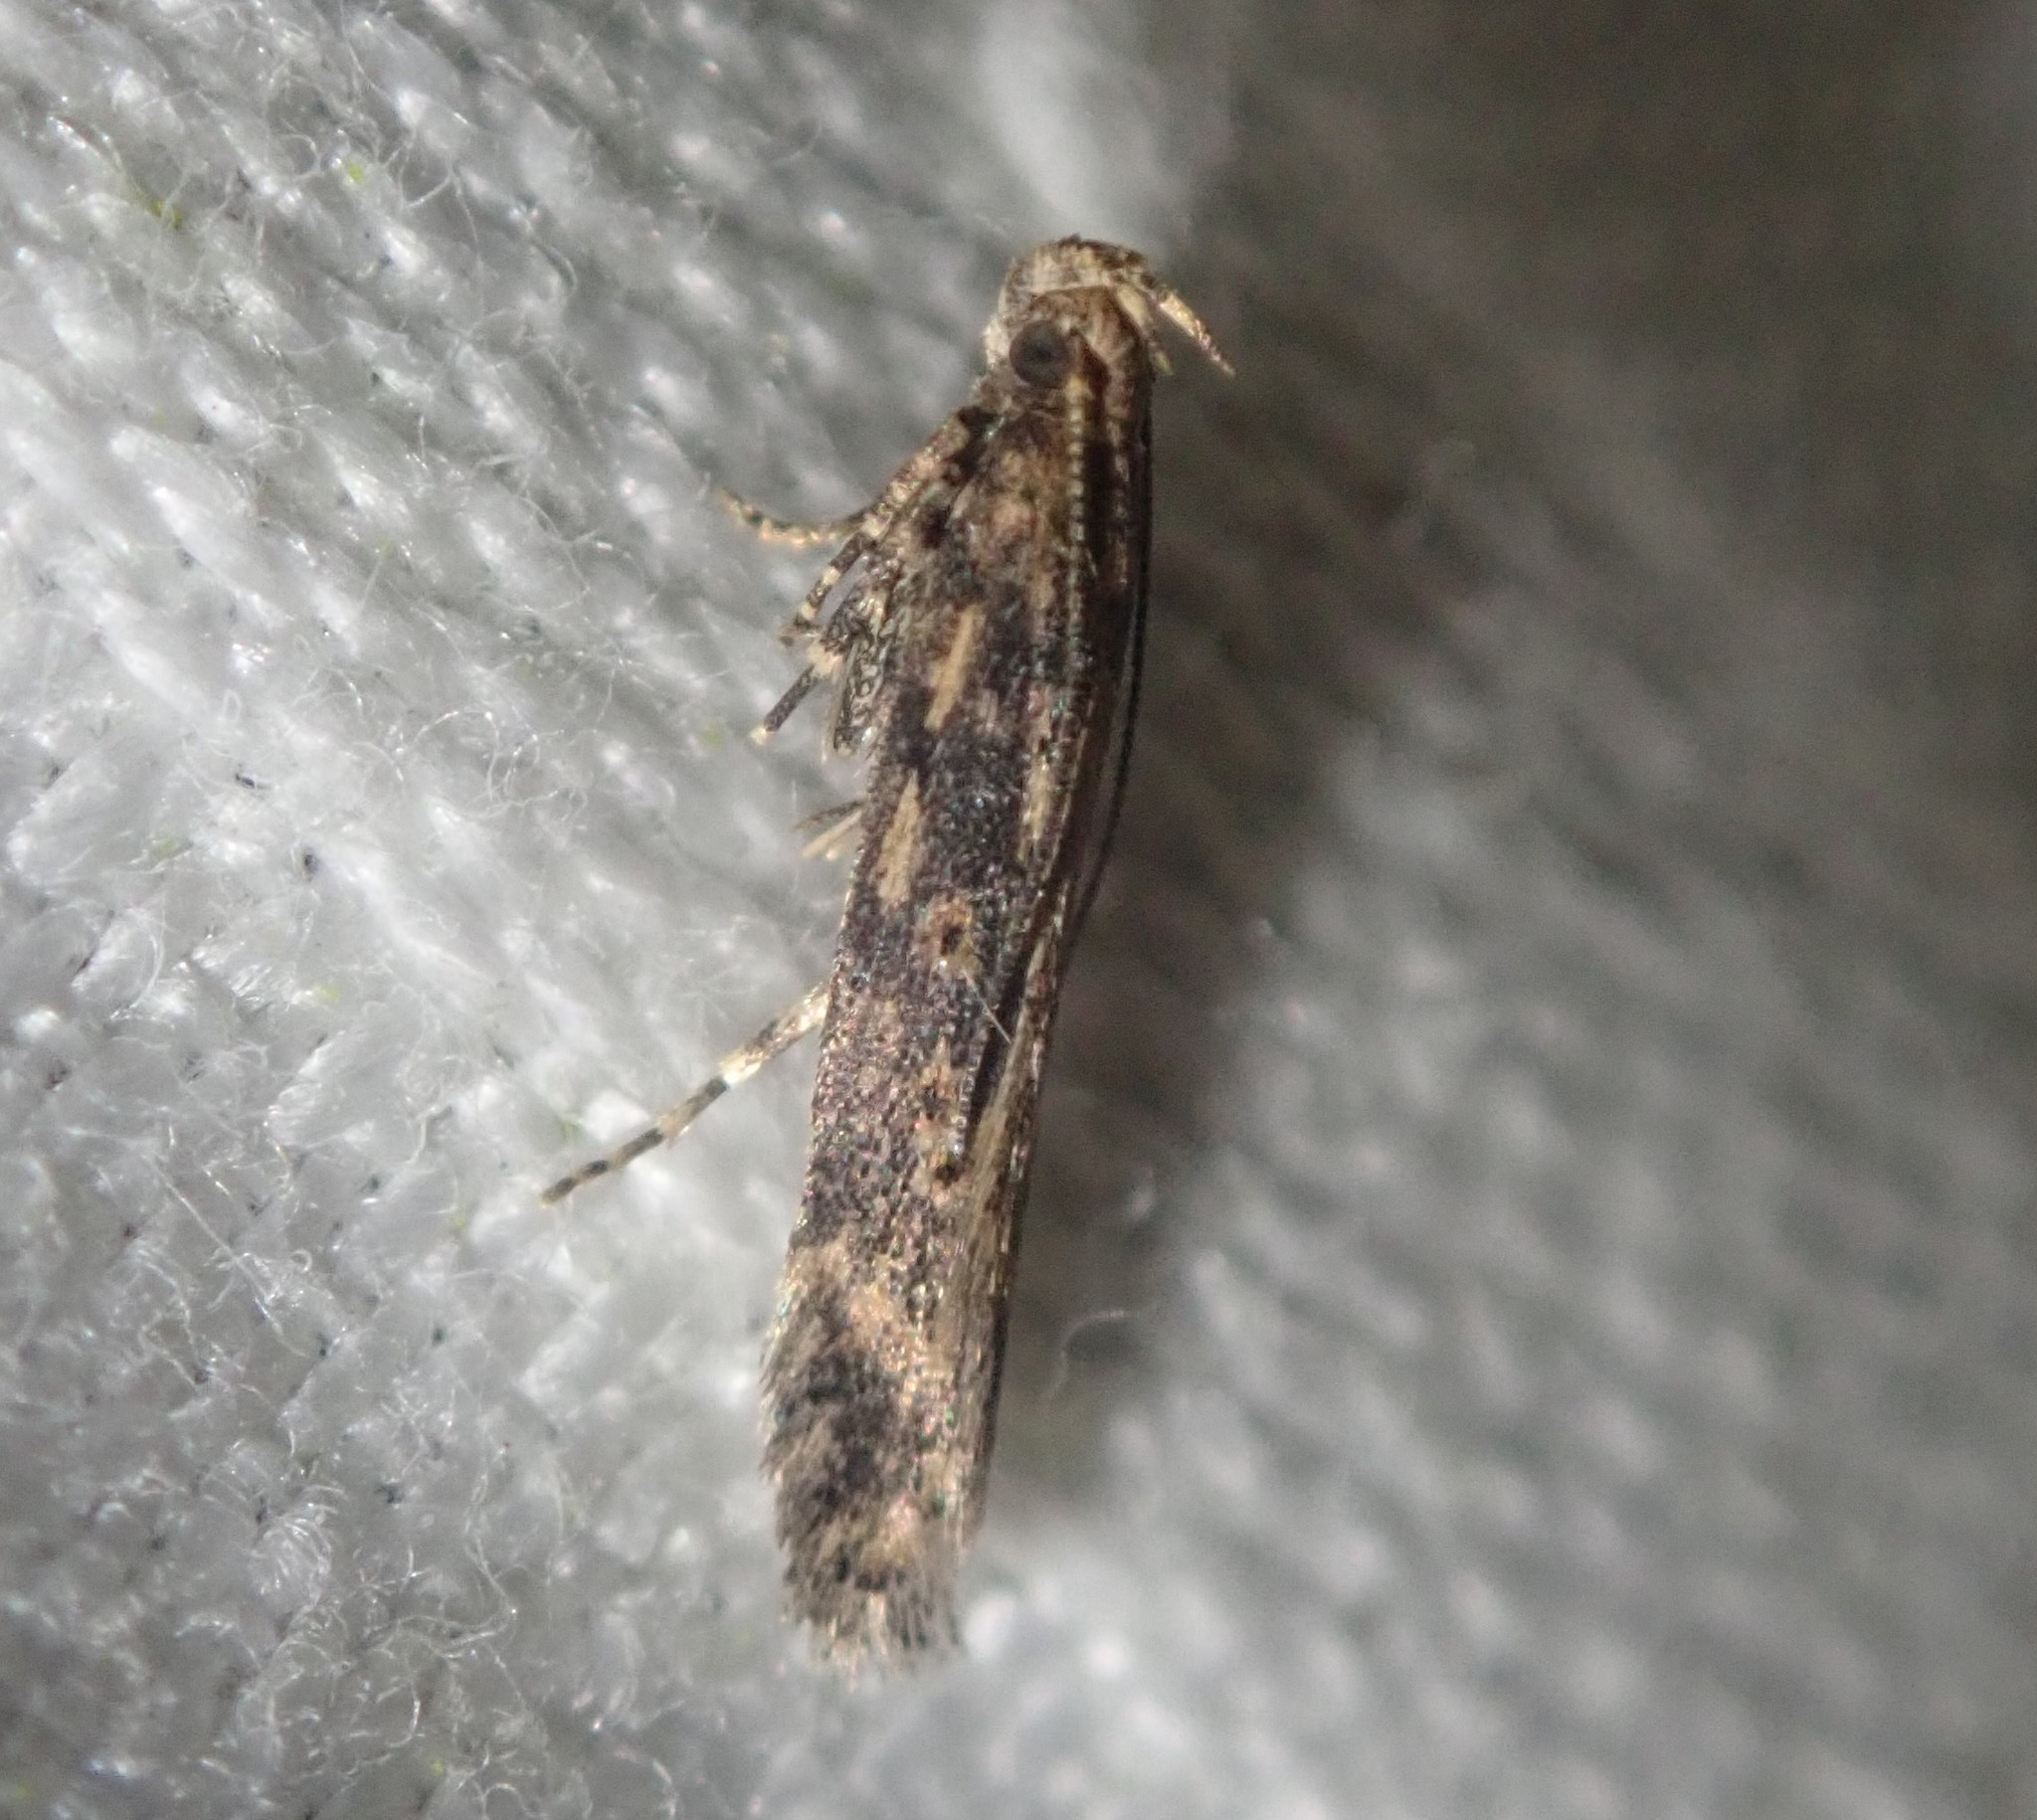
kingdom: Animalia
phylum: Arthropoda
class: Insecta
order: Lepidoptera
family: Gelechiidae
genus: Scrobipalpa
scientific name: Scrobipalpa ocellatella
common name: Beet moth
